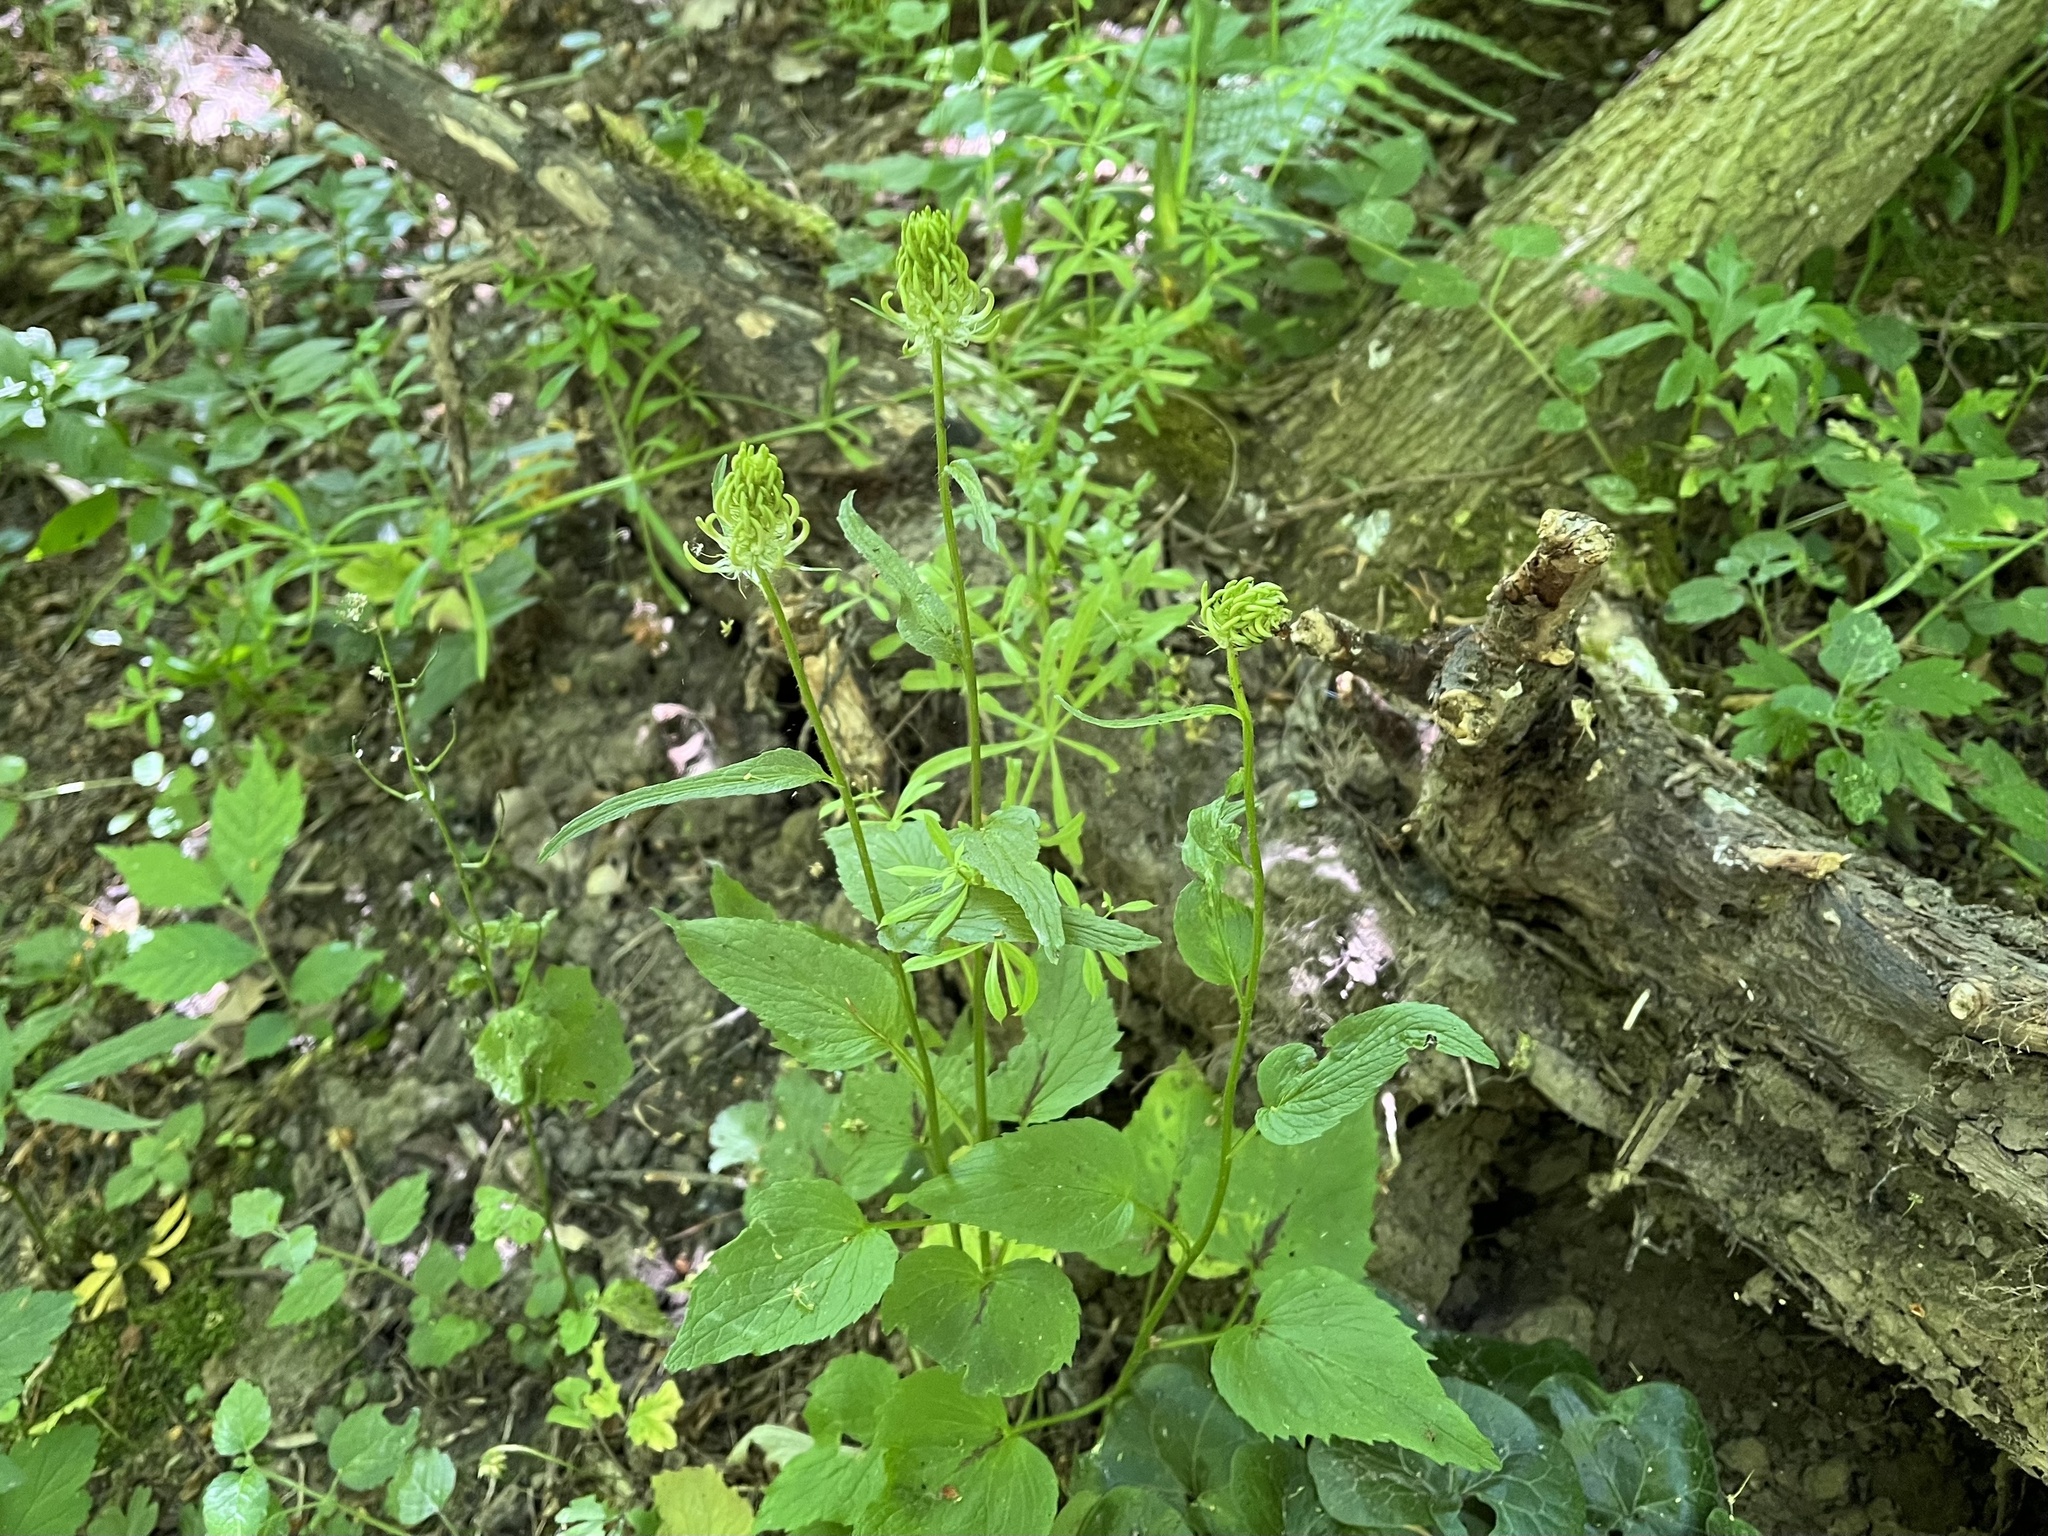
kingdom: Plantae
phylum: Tracheophyta
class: Magnoliopsida
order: Asterales
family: Campanulaceae
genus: Phyteuma
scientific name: Phyteuma spicatum
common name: Spiked rampion
